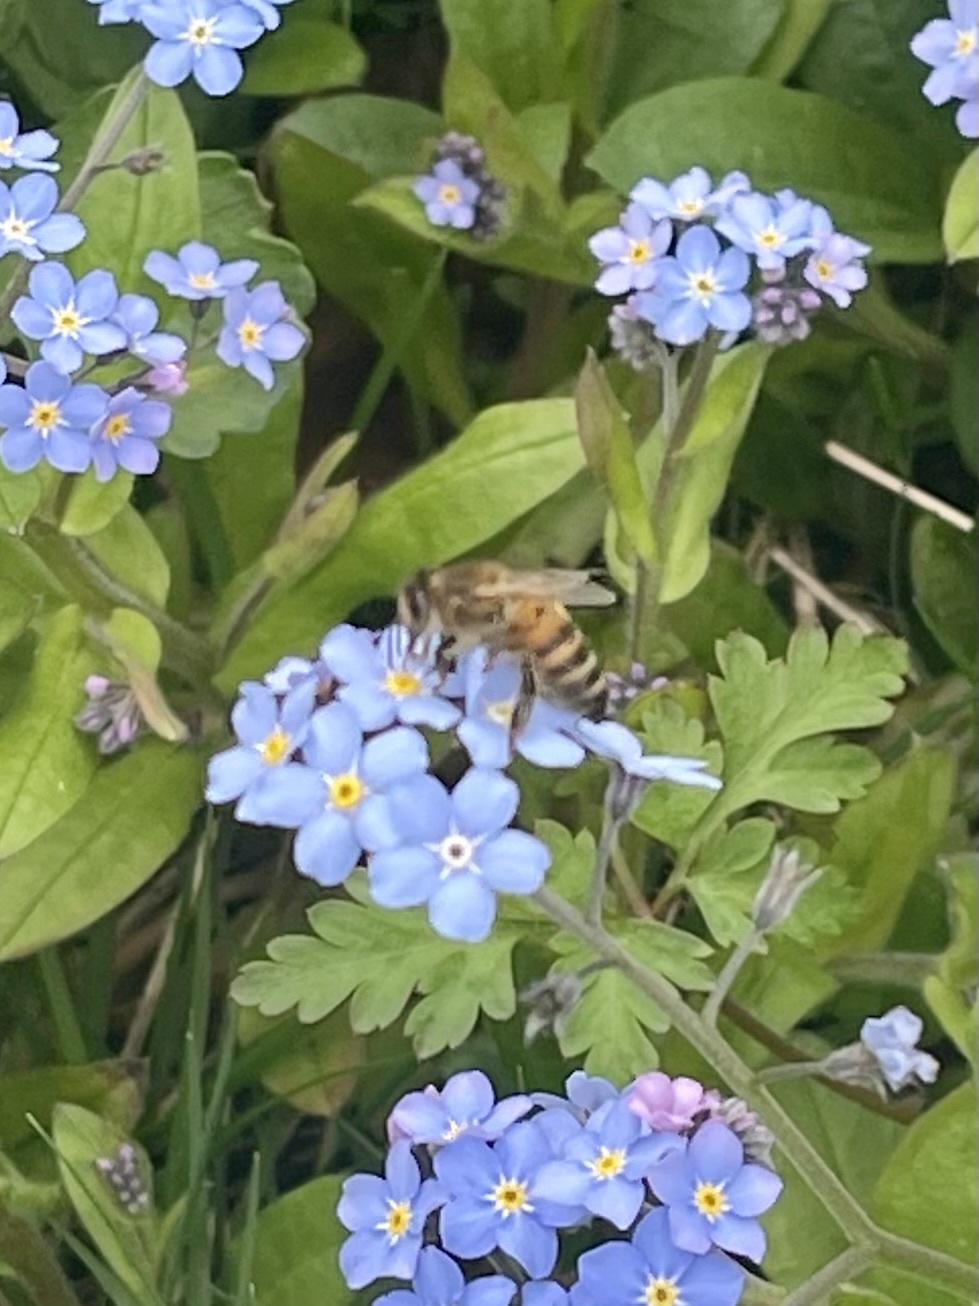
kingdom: Animalia
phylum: Arthropoda
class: Insecta
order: Hymenoptera
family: Apidae
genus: Apis
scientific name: Apis mellifera
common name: Honey bee
